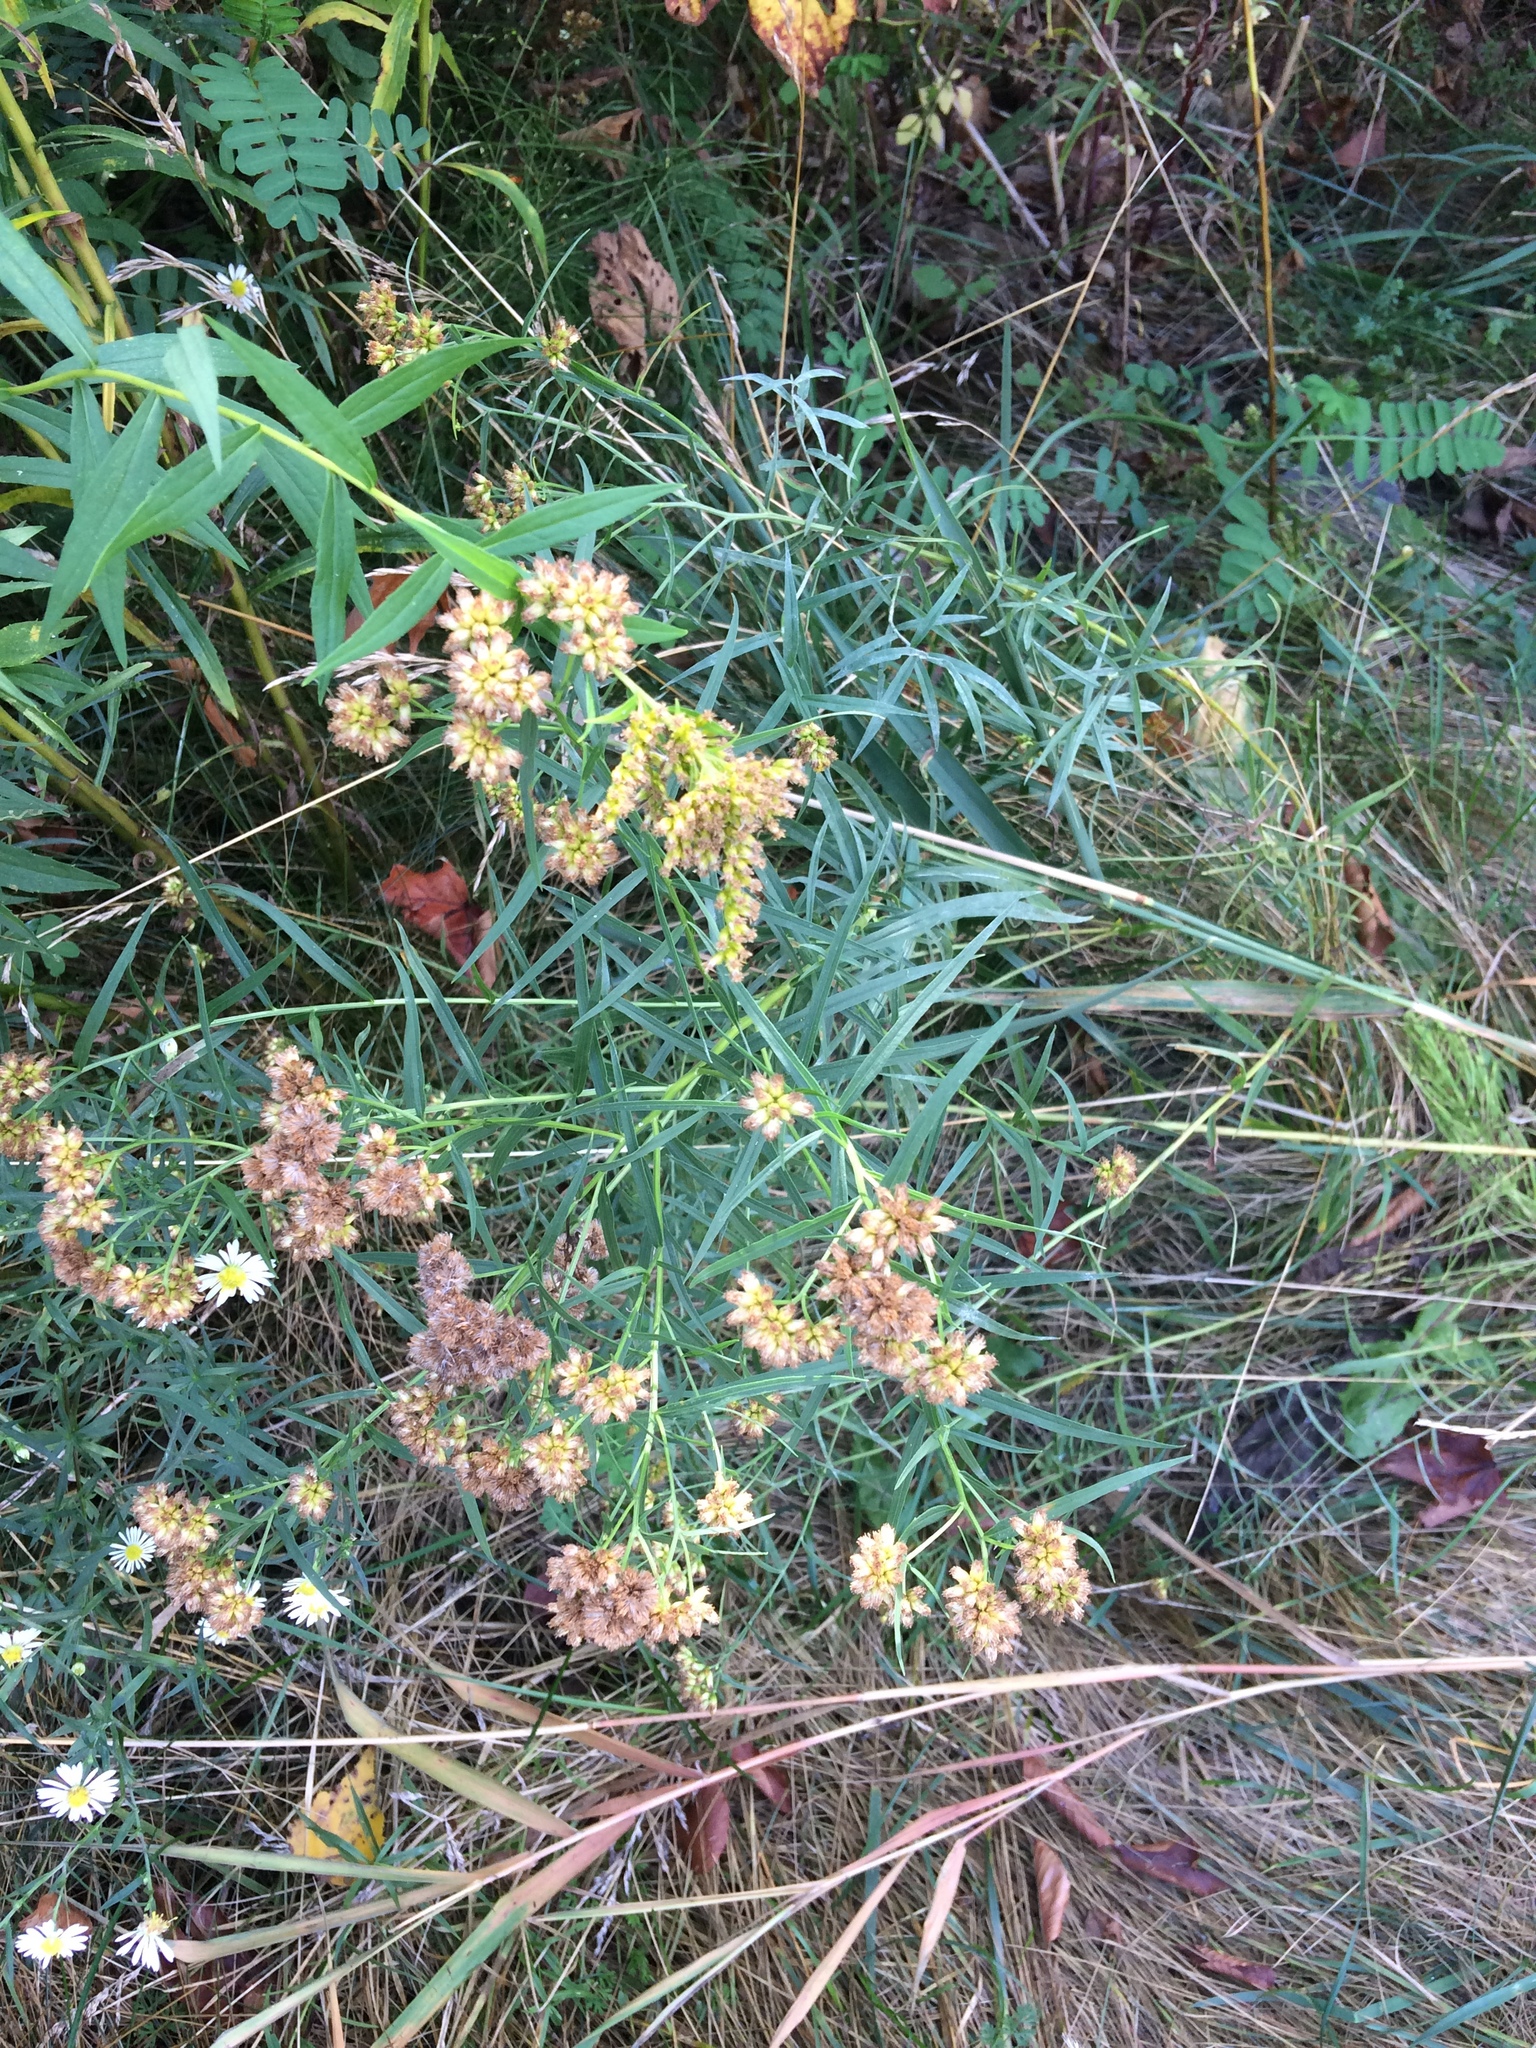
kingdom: Plantae
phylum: Tracheophyta
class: Magnoliopsida
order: Asterales
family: Asteraceae
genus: Euthamia
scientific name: Euthamia graminifolia
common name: Common goldentop
